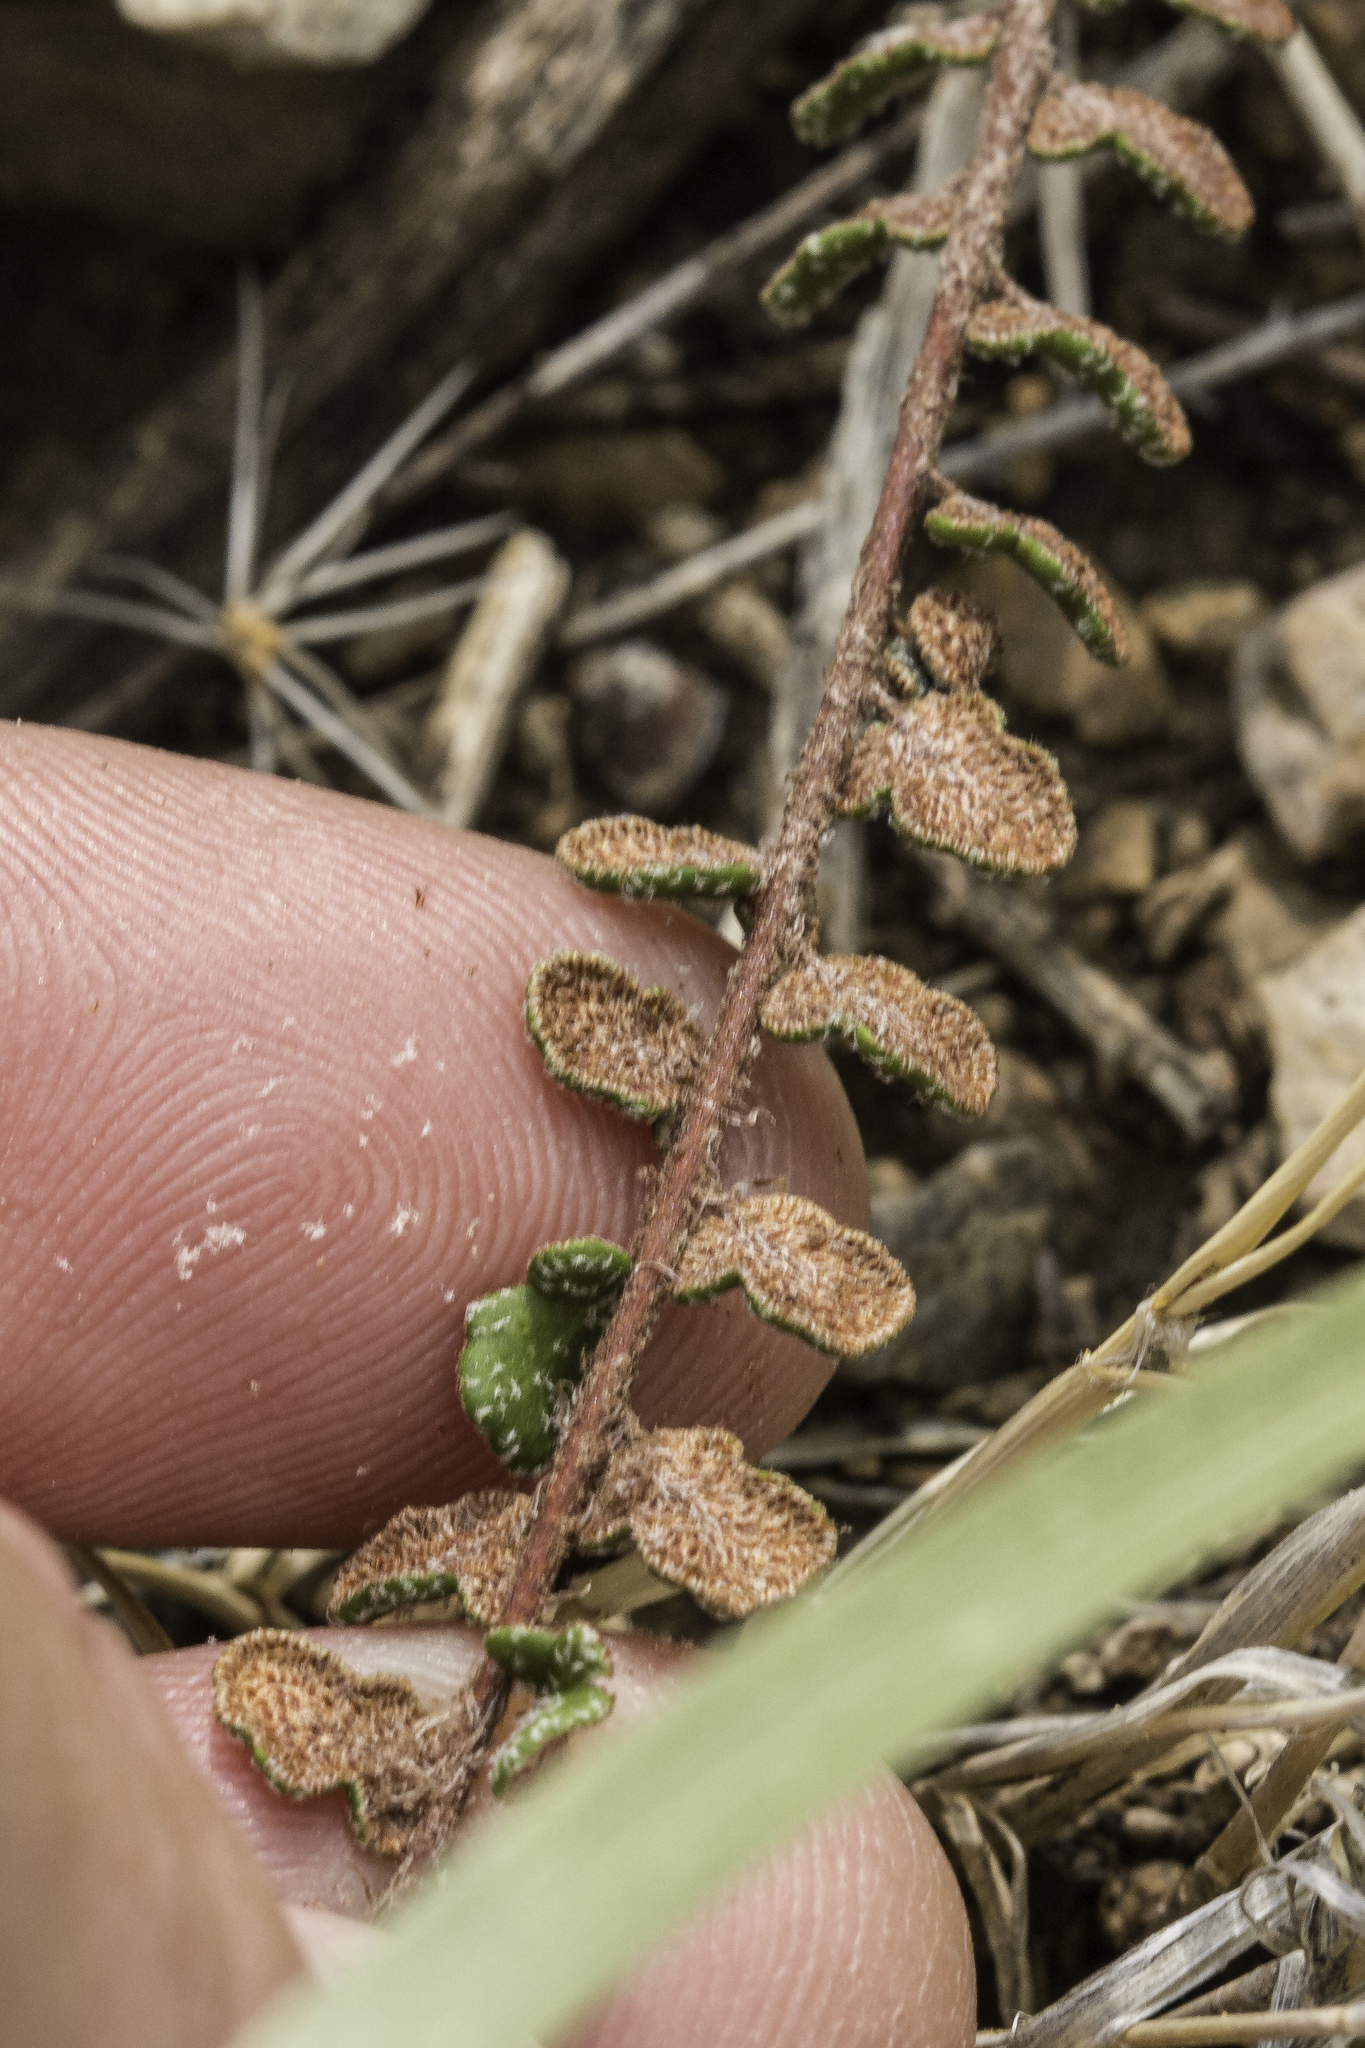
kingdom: Plantae
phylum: Tracheophyta
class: Polypodiopsida
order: Polypodiales
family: Pteridaceae
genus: Astrolepis
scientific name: Astrolepis cochisensis
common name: Scaly cloak fern
